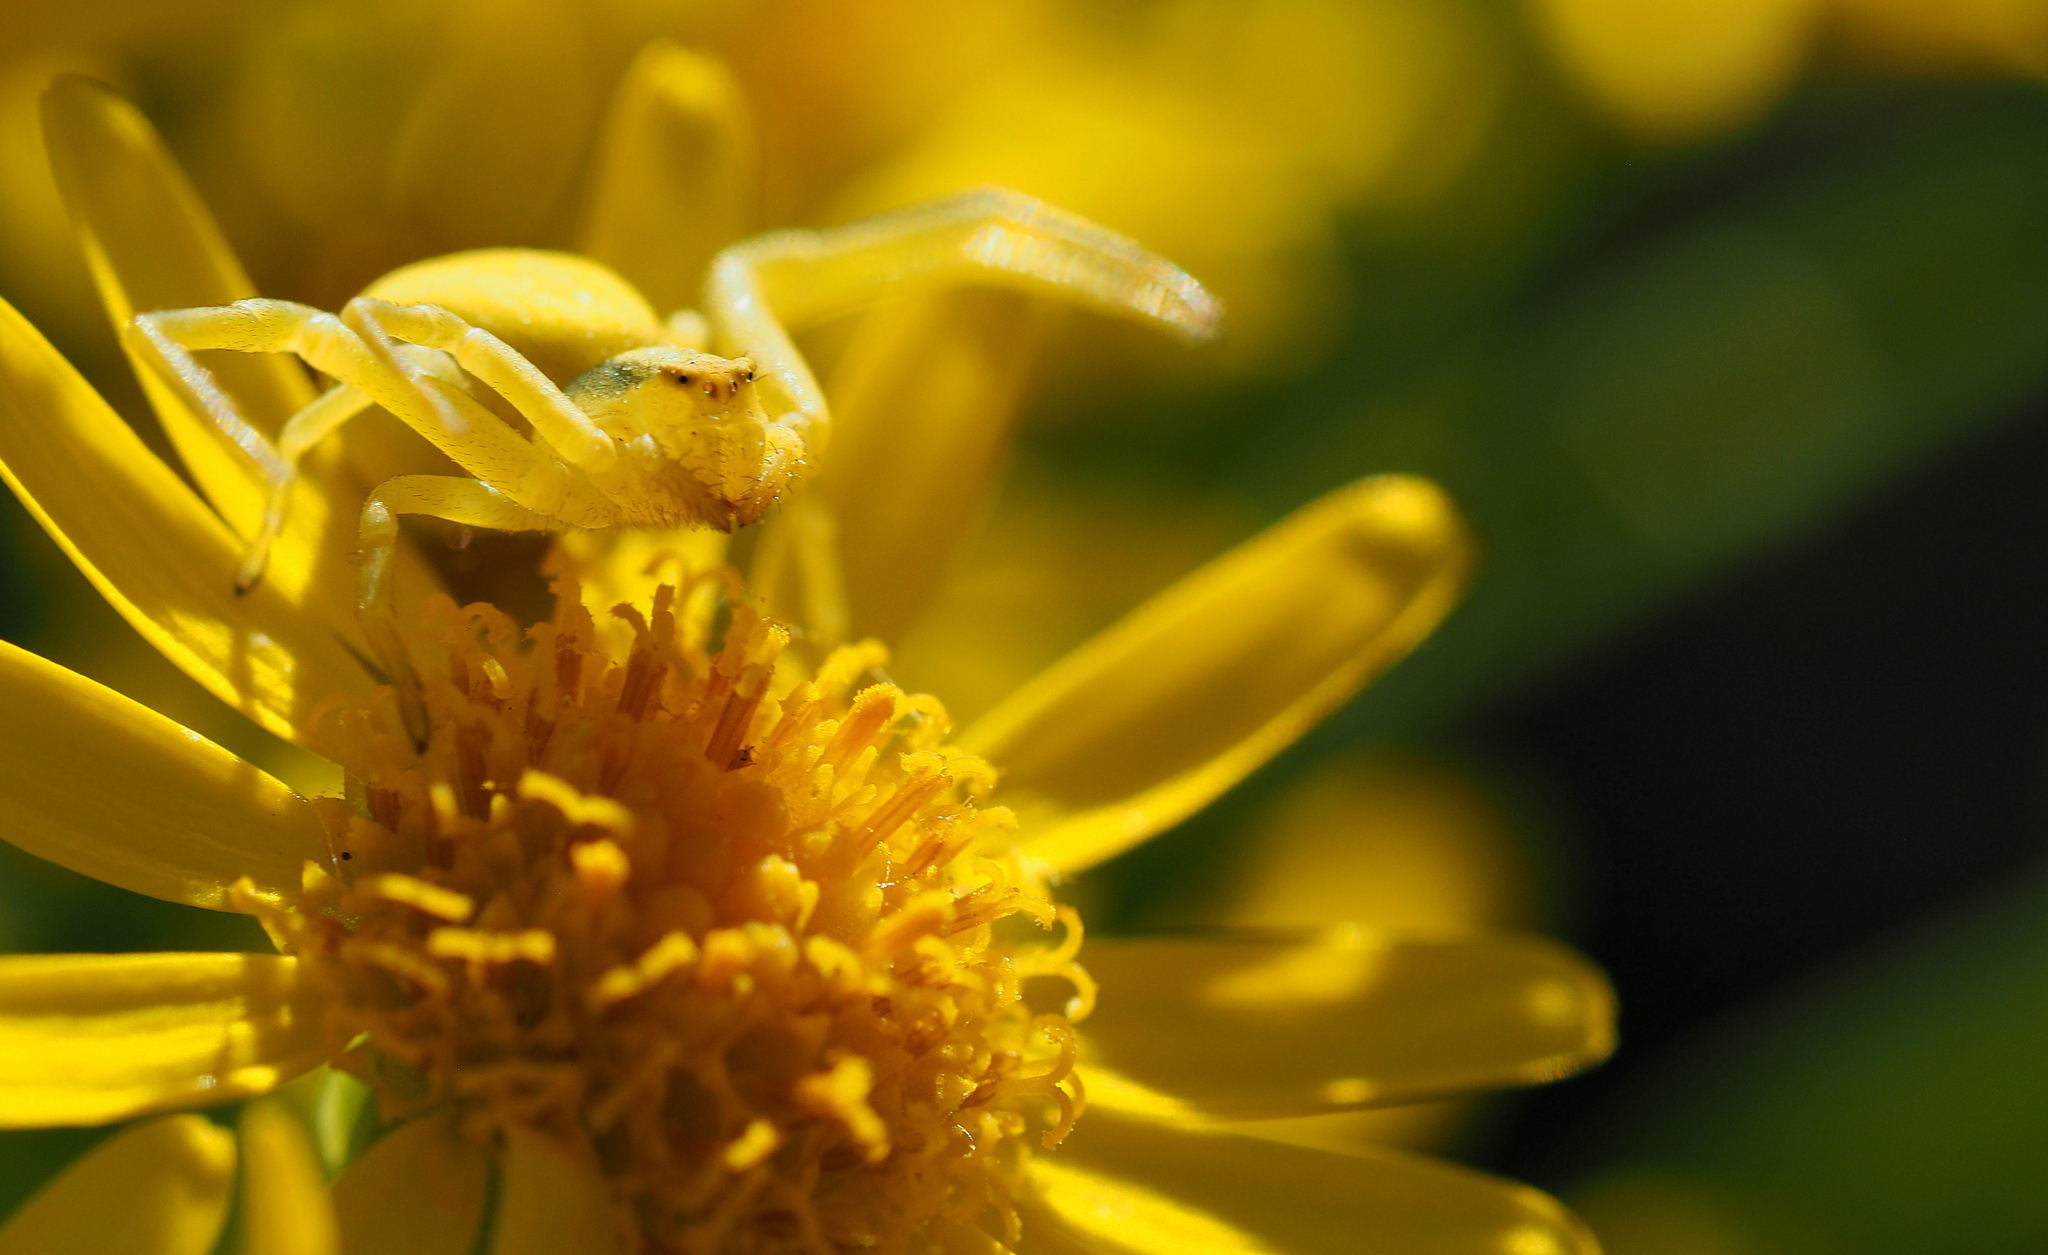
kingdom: Animalia
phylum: Arthropoda
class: Arachnida
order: Araneae
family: Thomisidae
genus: Misumena
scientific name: Misumena vatia
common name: Goldenrod crab spider
